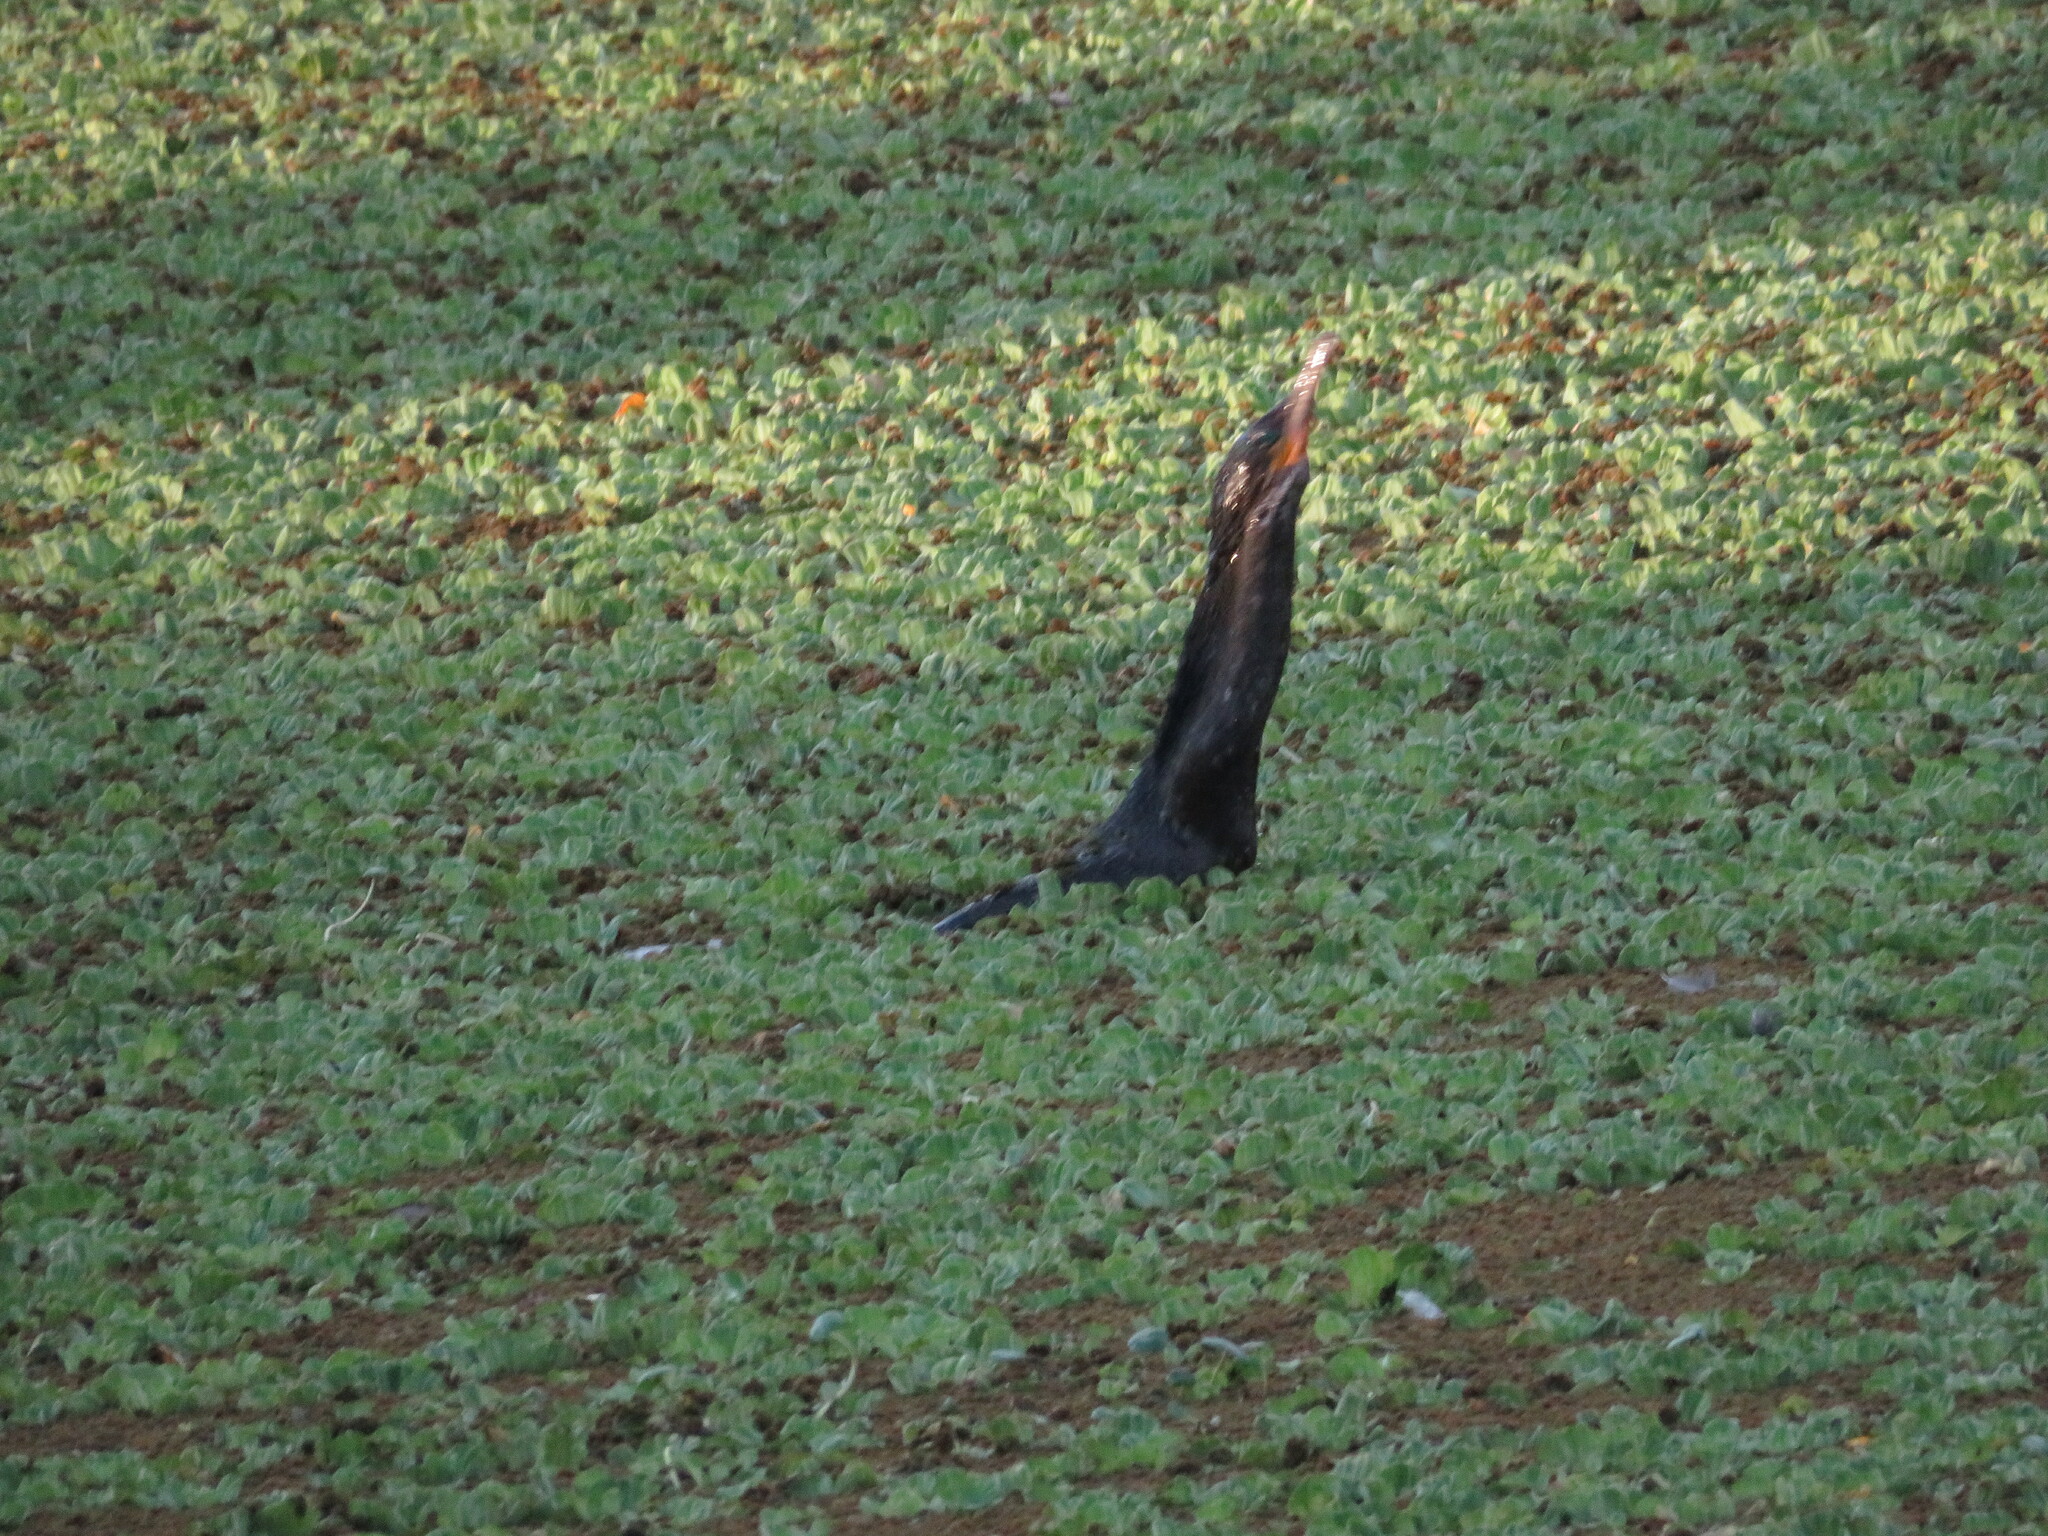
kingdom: Animalia
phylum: Chordata
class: Aves
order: Suliformes
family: Phalacrocoracidae
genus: Phalacrocorax
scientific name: Phalacrocorax brasilianus
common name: Neotropic cormorant
